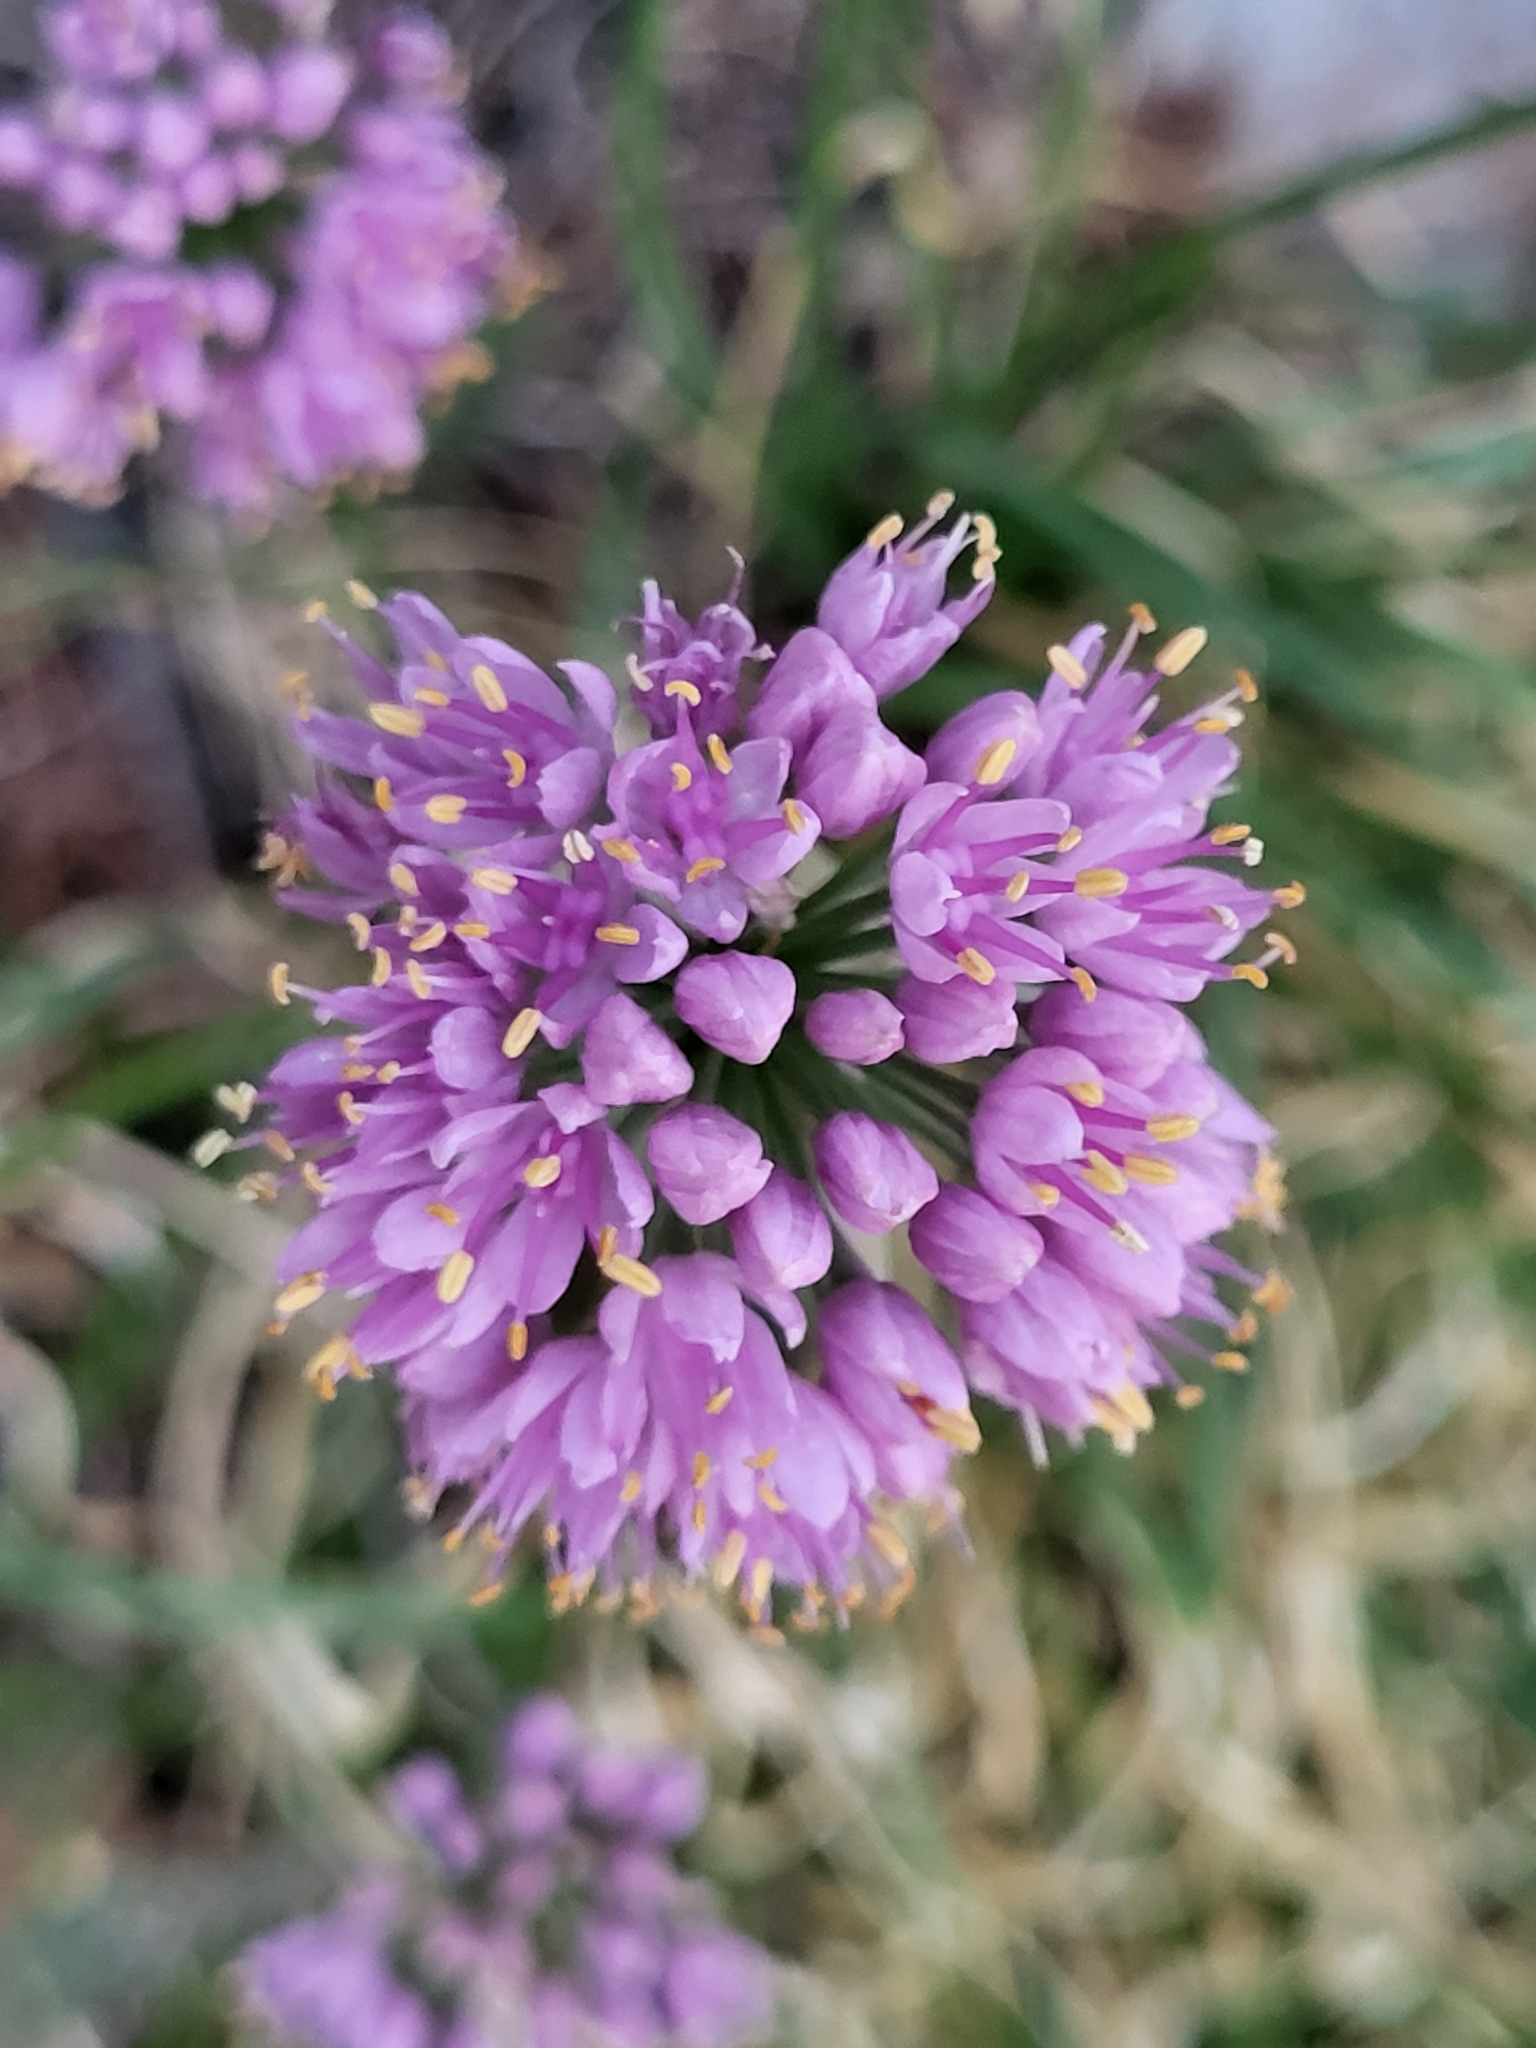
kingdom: Plantae
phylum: Tracheophyta
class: Liliopsida
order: Asparagales
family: Amaryllidaceae
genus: Allium
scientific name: Allium lusitanicum
